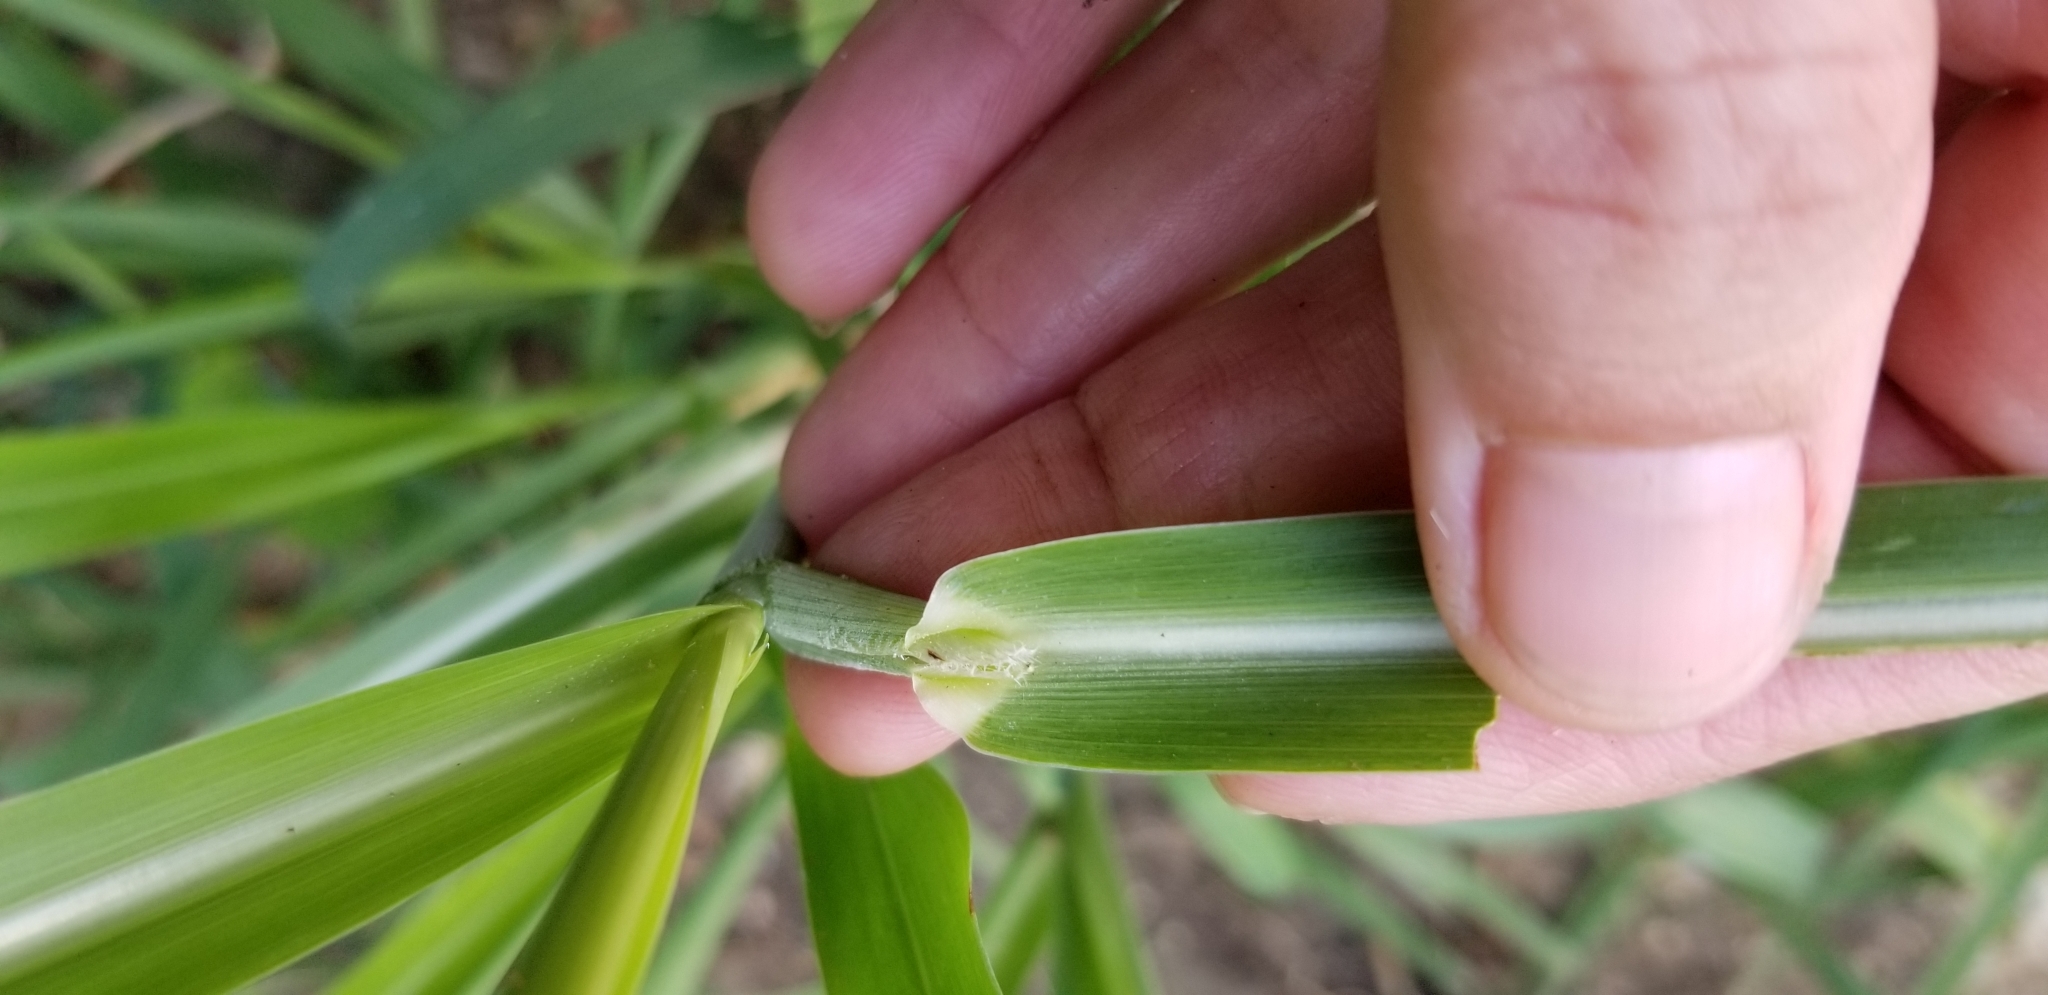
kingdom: Plantae
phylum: Tracheophyta
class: Liliopsida
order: Poales
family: Poaceae
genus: Sorghum
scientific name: Sorghum halepense
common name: Johnson-grass
